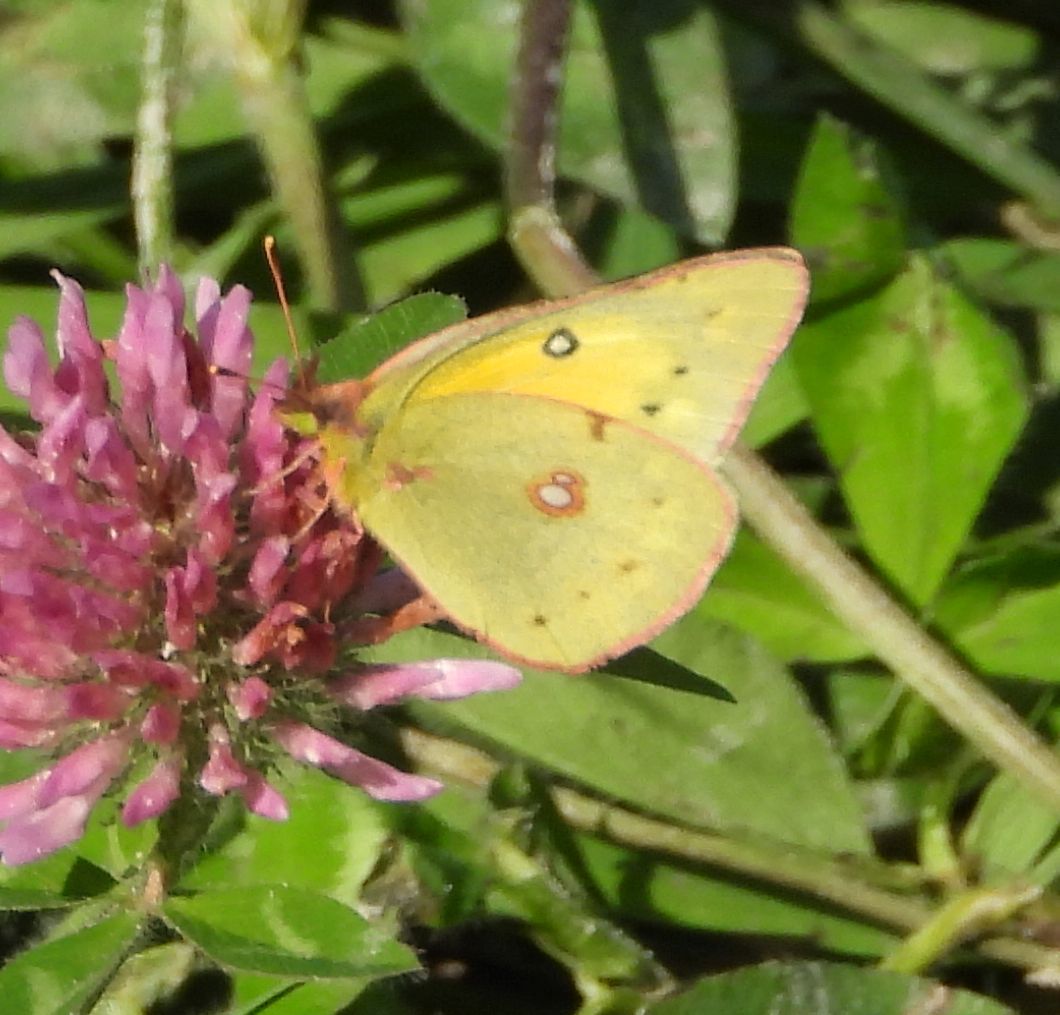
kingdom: Animalia
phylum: Arthropoda
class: Insecta
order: Lepidoptera
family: Pieridae
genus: Colias
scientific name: Colias eurytheme
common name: Alfalfa butterfly
